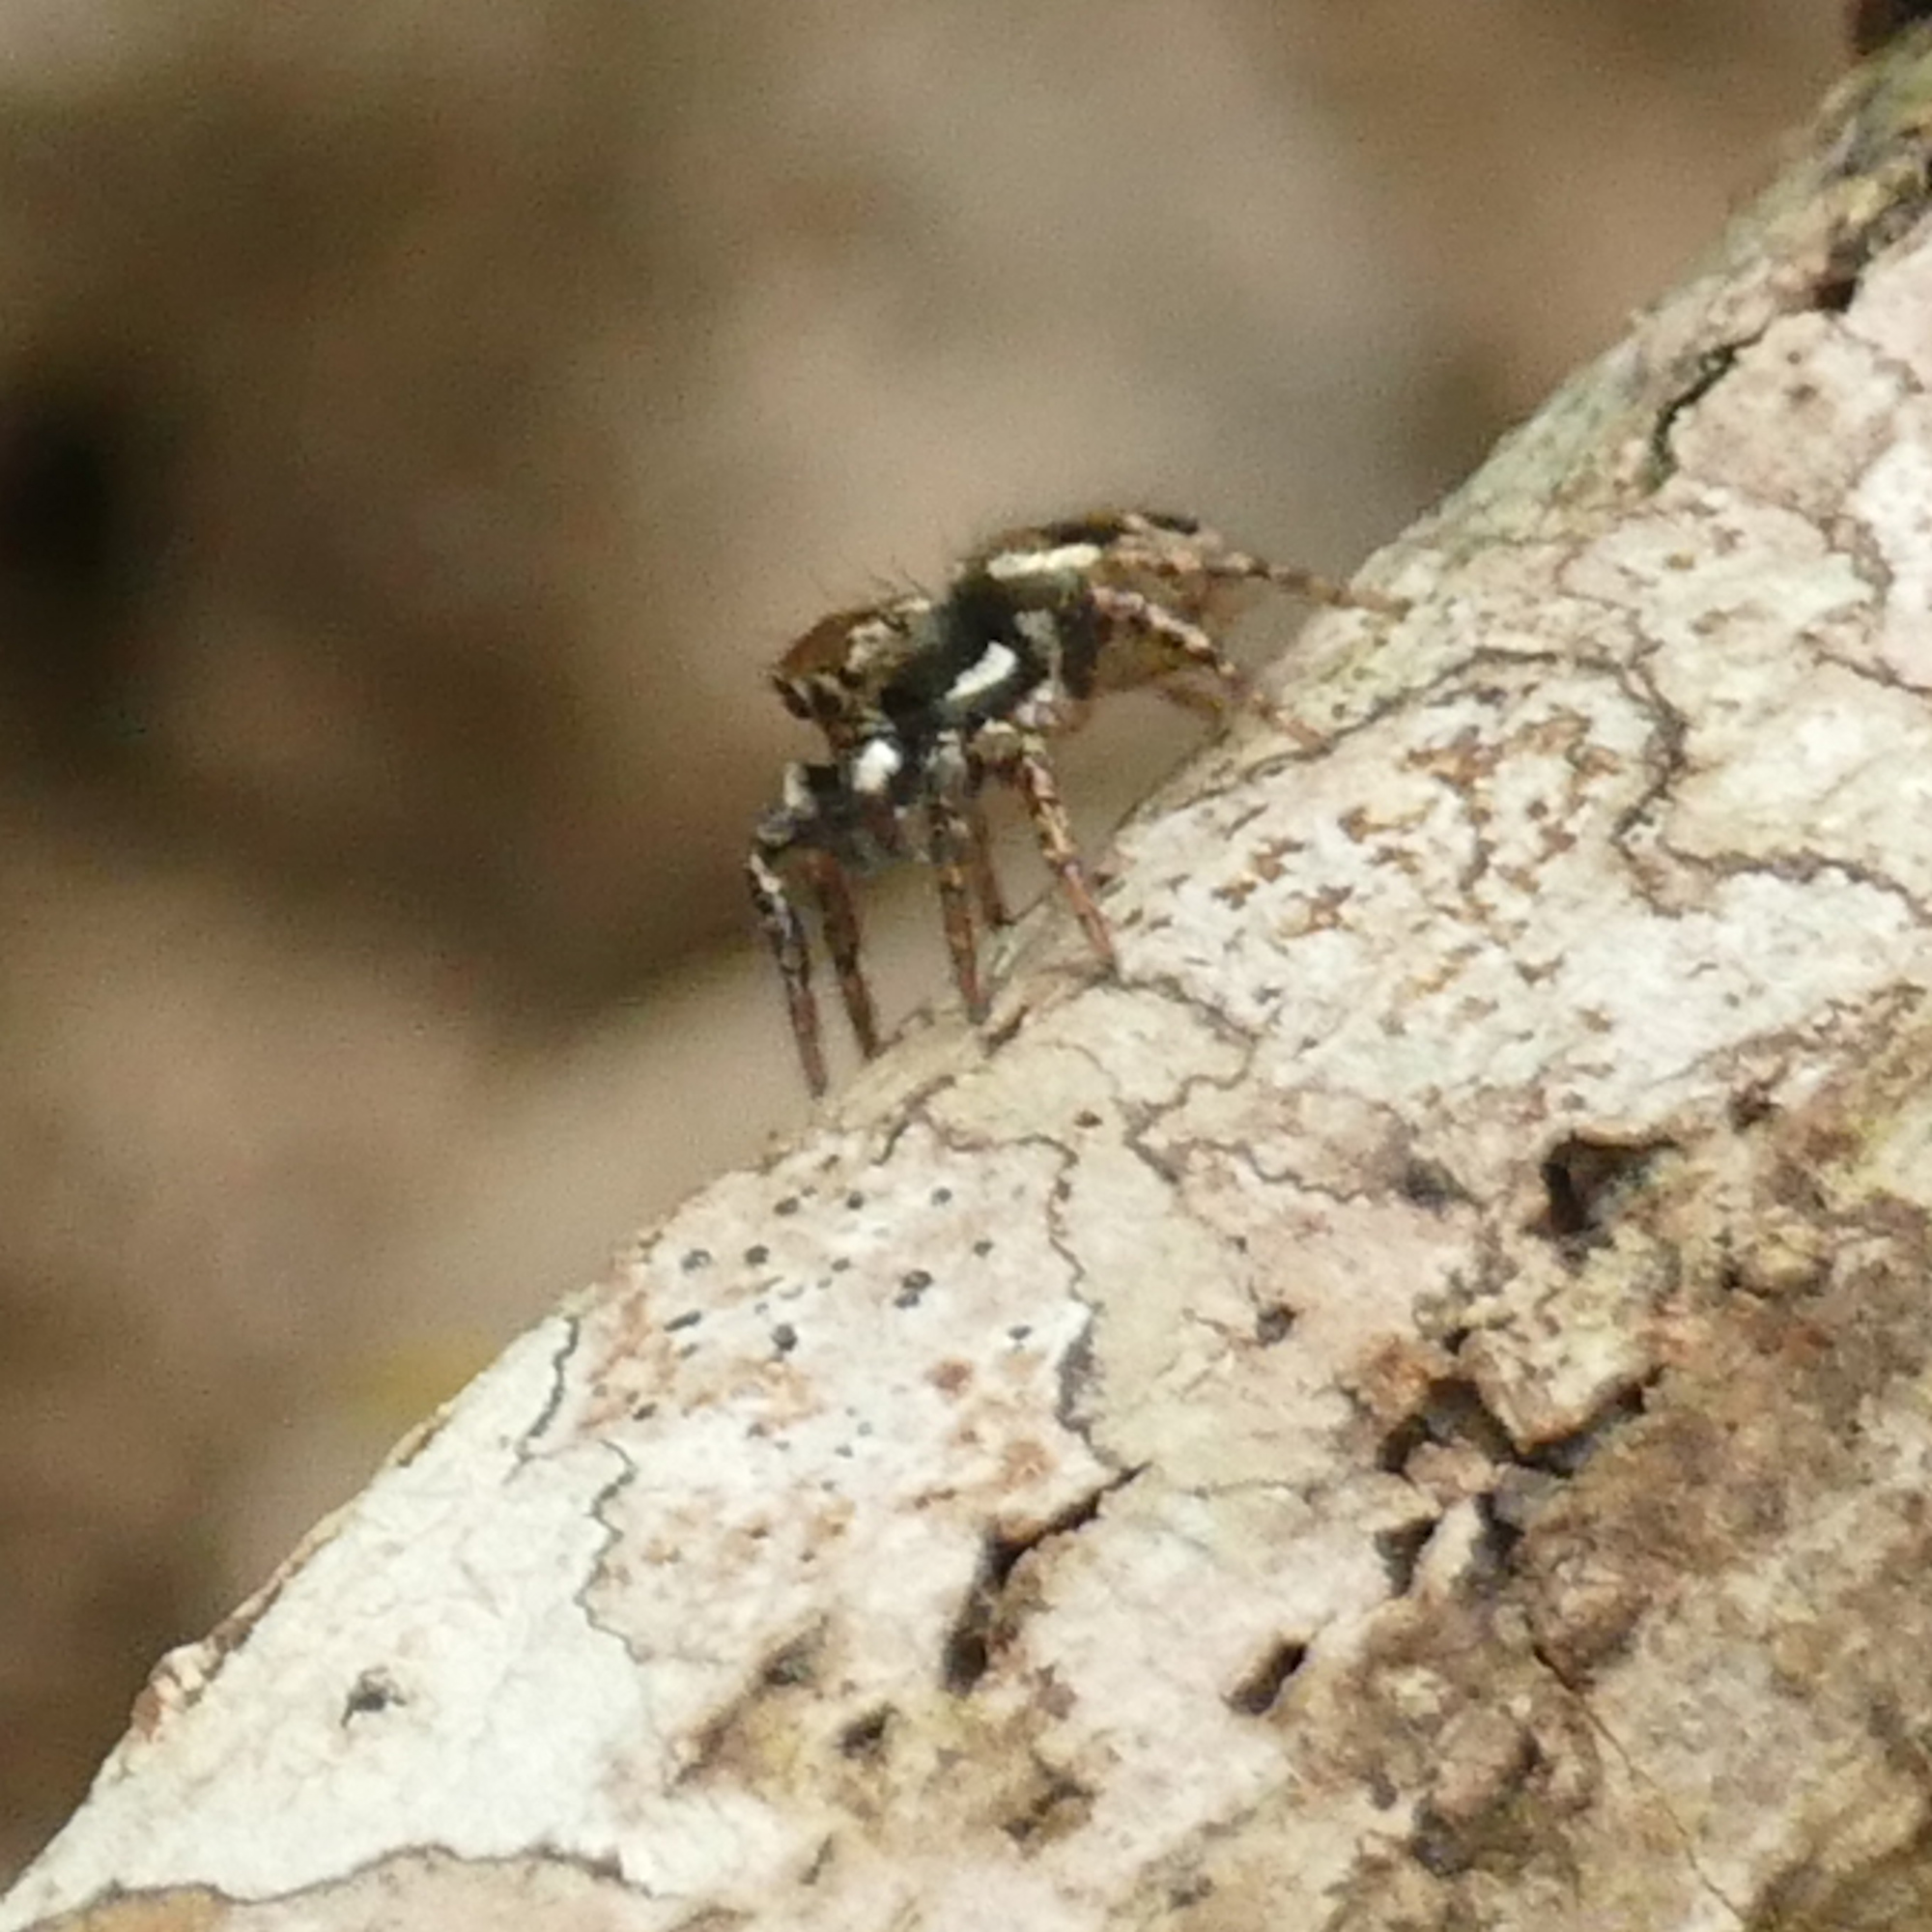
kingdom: Animalia
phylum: Arthropoda
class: Arachnida
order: Araneae
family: Salticidae
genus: Anasaitis
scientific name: Anasaitis canosa
